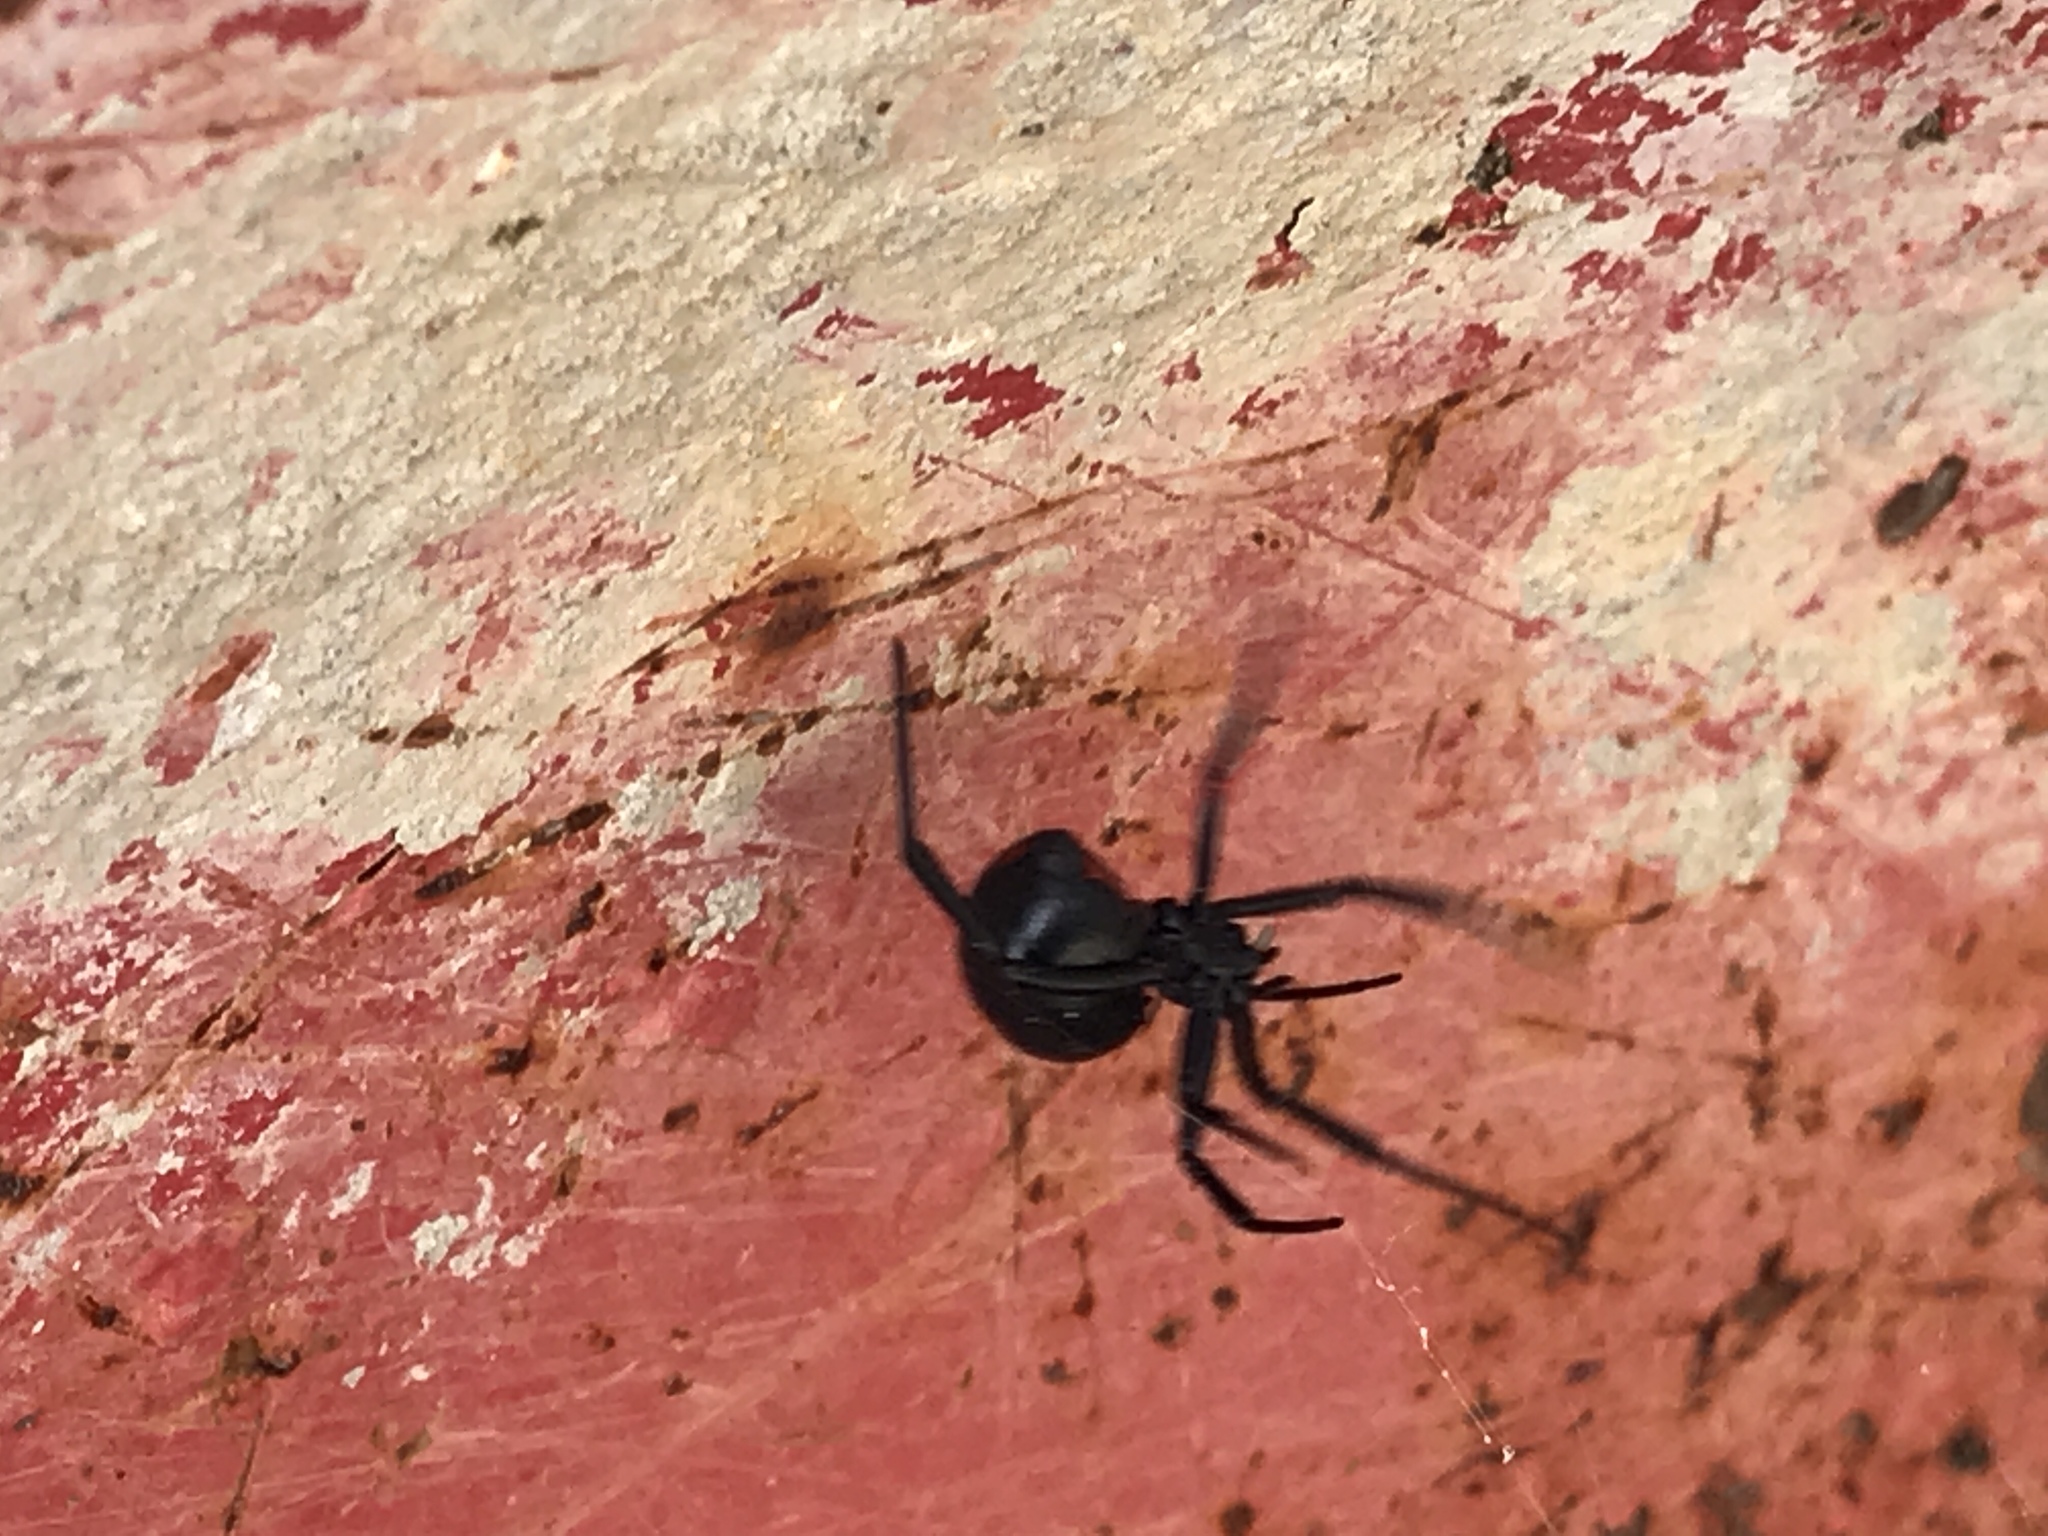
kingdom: Animalia
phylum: Arthropoda
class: Arachnida
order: Araneae
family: Theridiidae
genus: Latrodectus
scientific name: Latrodectus mactans
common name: Cobweb spiders
